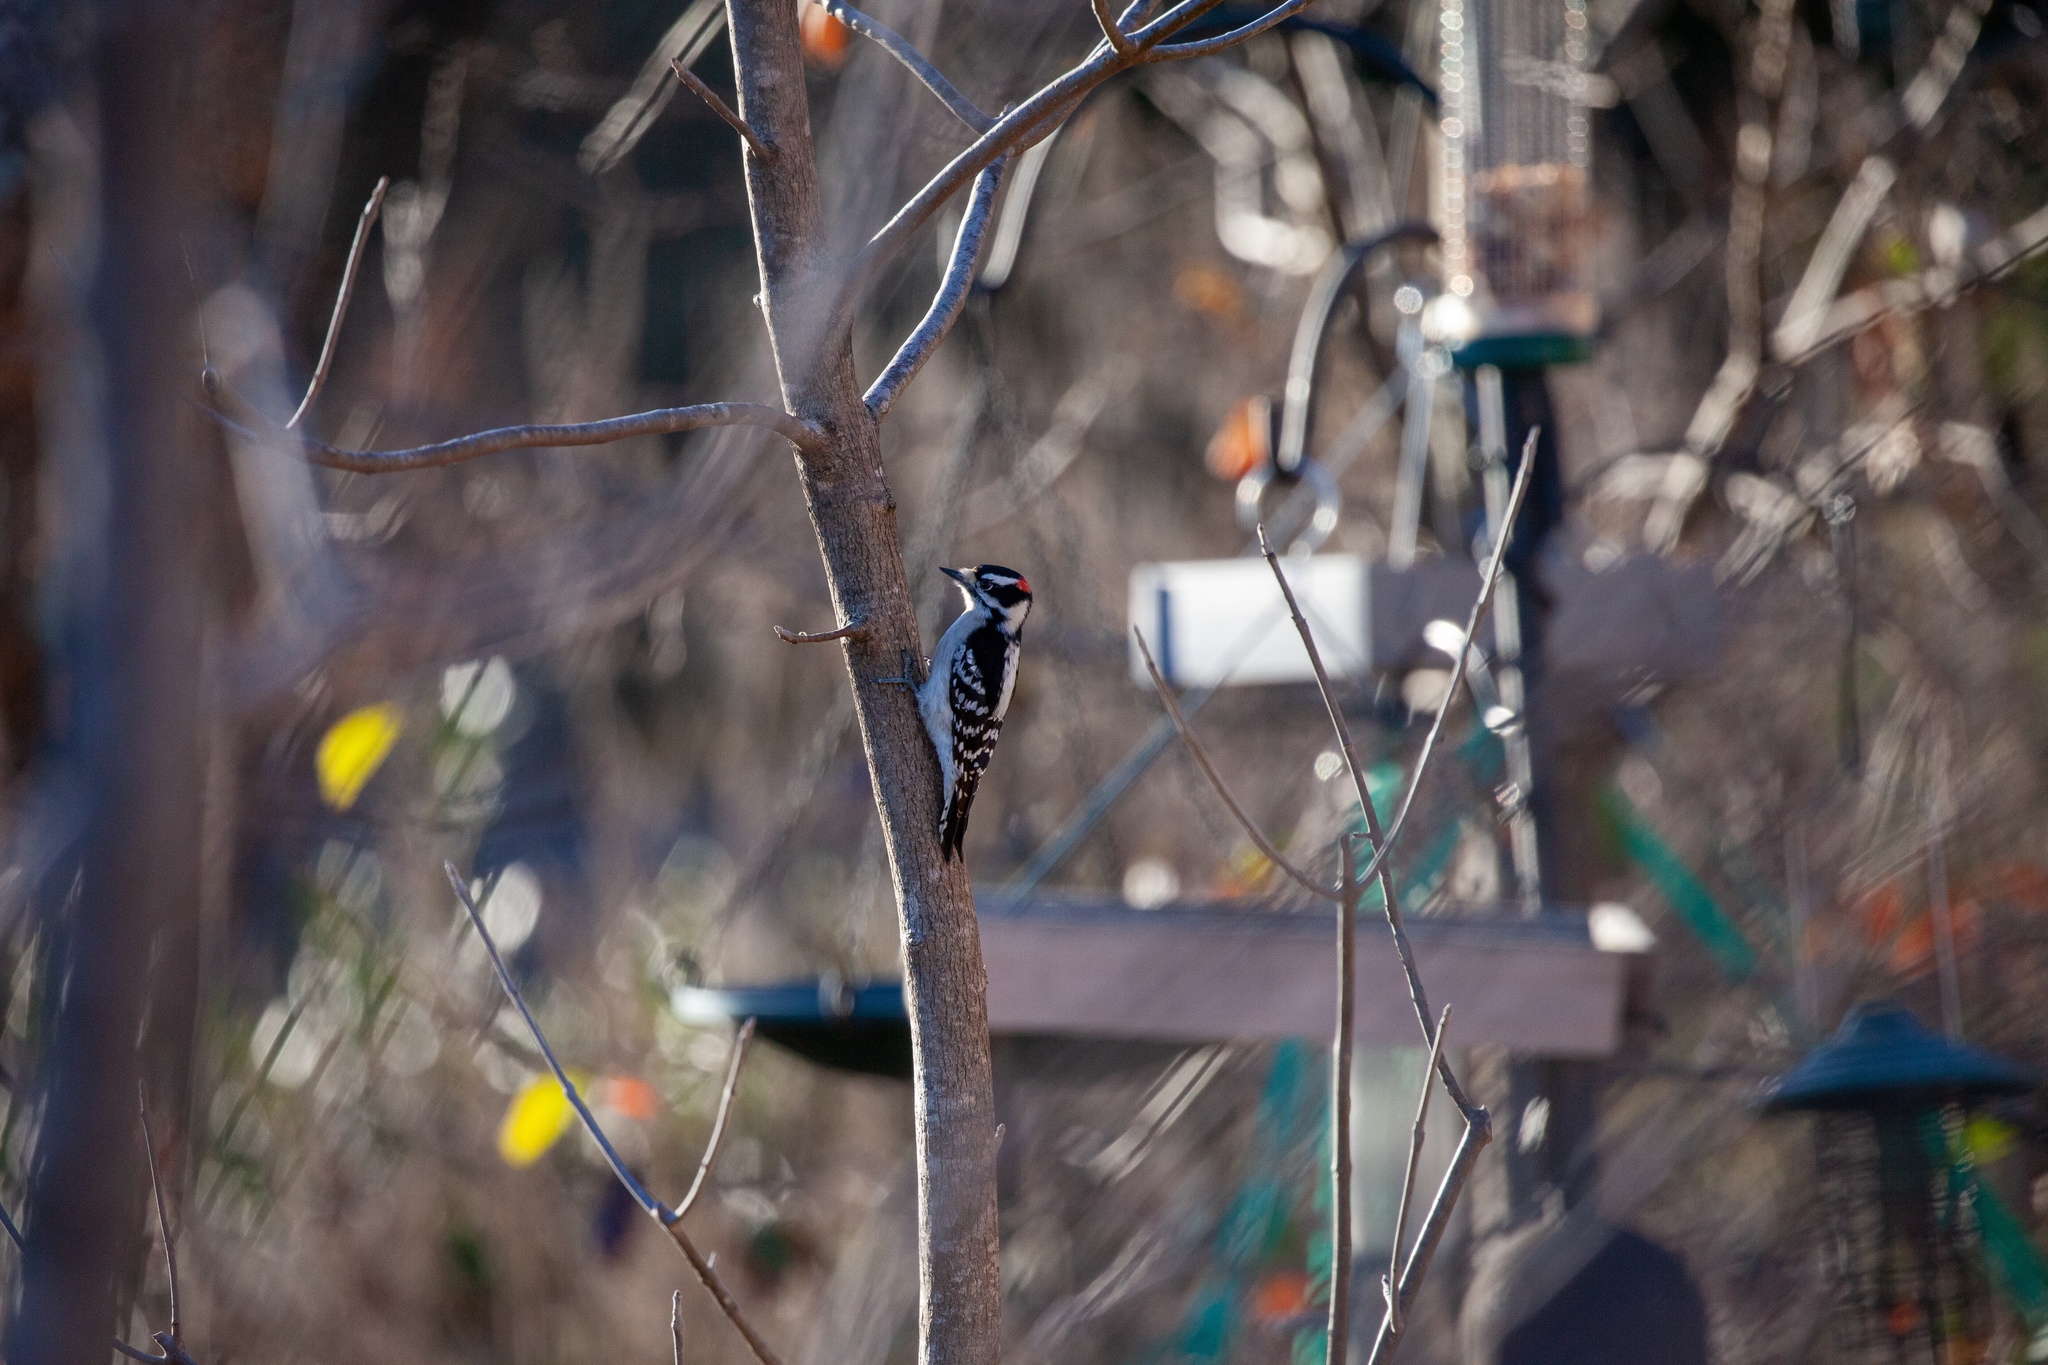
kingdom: Animalia
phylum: Chordata
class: Aves
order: Piciformes
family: Picidae
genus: Dryobates
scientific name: Dryobates pubescens
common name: Downy woodpecker
